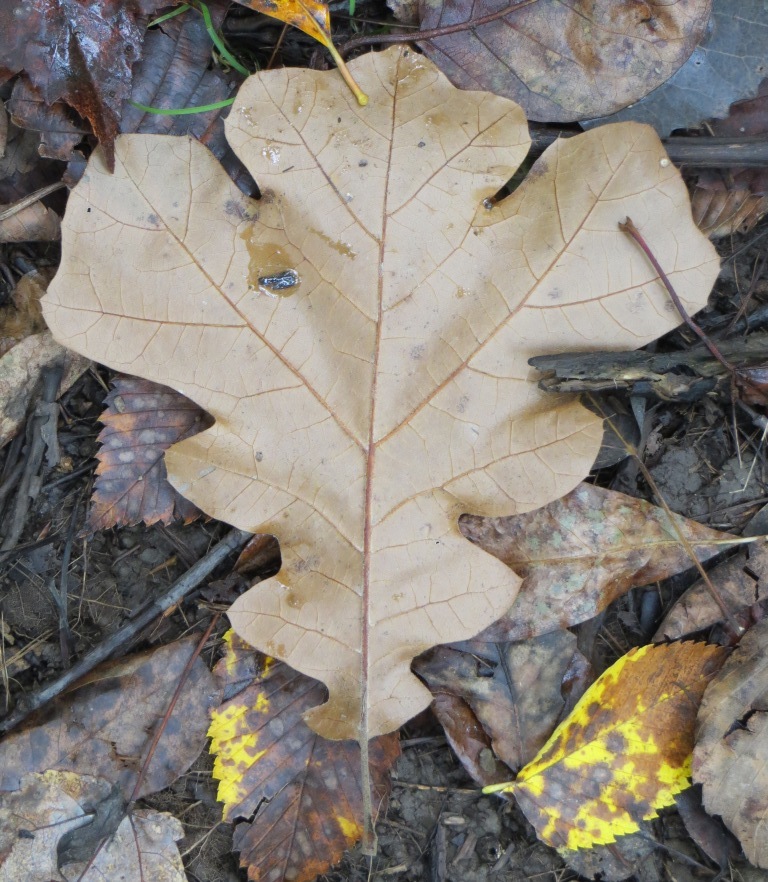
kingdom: Plantae
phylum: Tracheophyta
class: Magnoliopsida
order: Fagales
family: Fagaceae
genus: Quercus
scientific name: Quercus velutina
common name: Black oak
